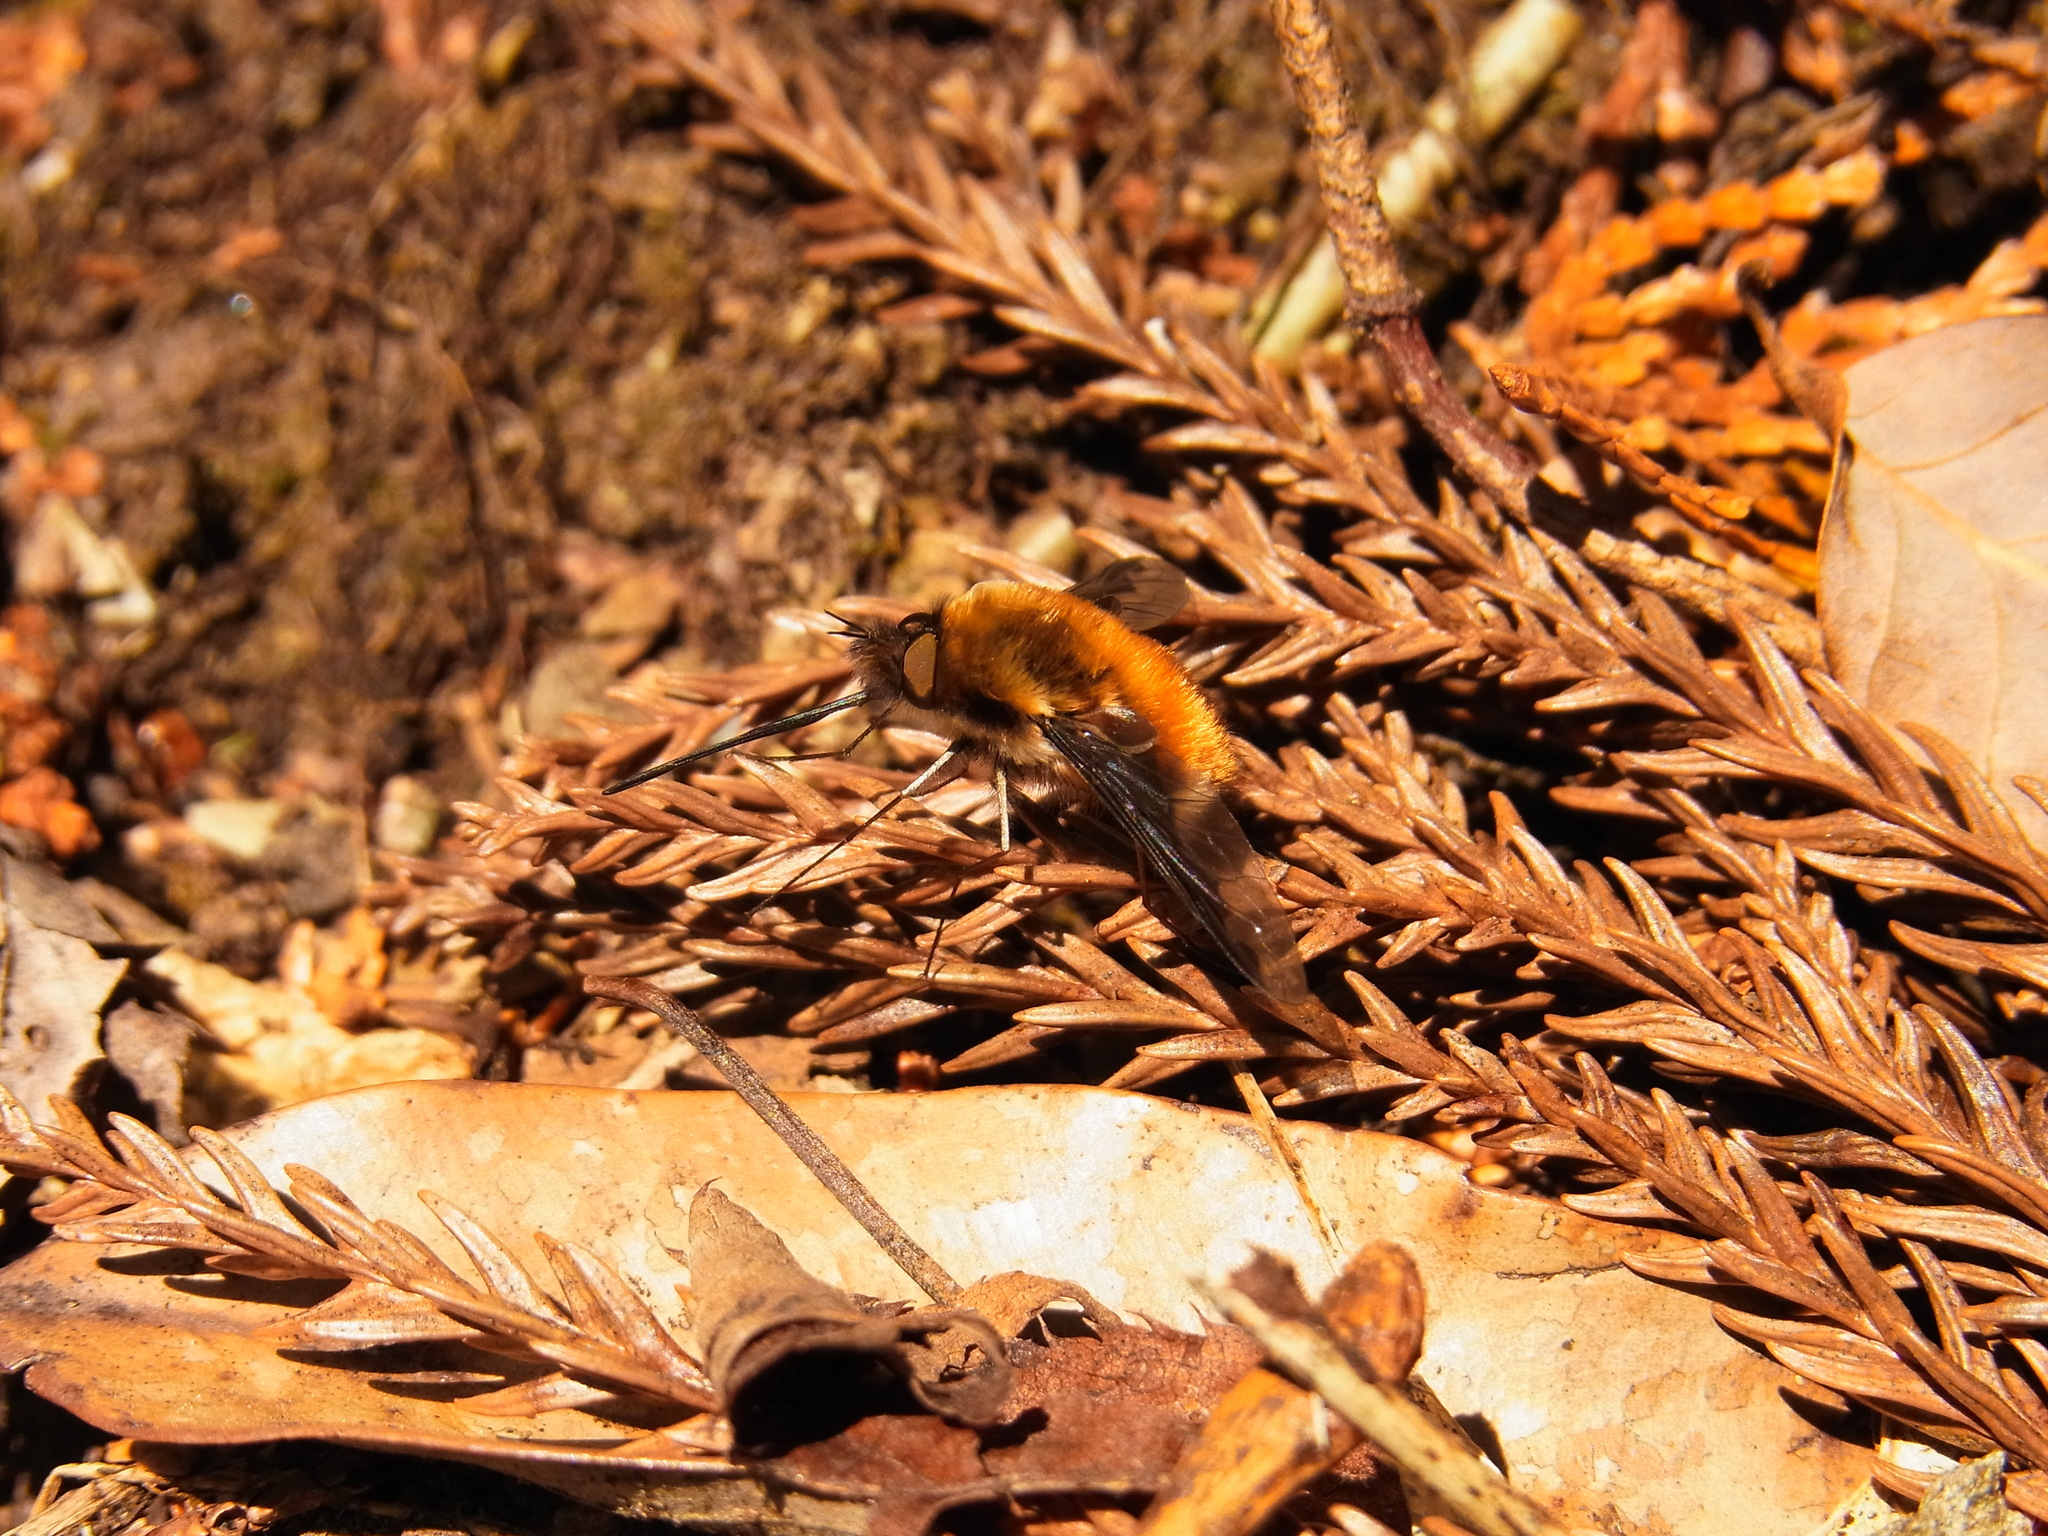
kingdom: Animalia
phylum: Arthropoda
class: Insecta
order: Diptera
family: Bombyliidae
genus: Bombylius
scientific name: Bombylius major
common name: Bee fly
